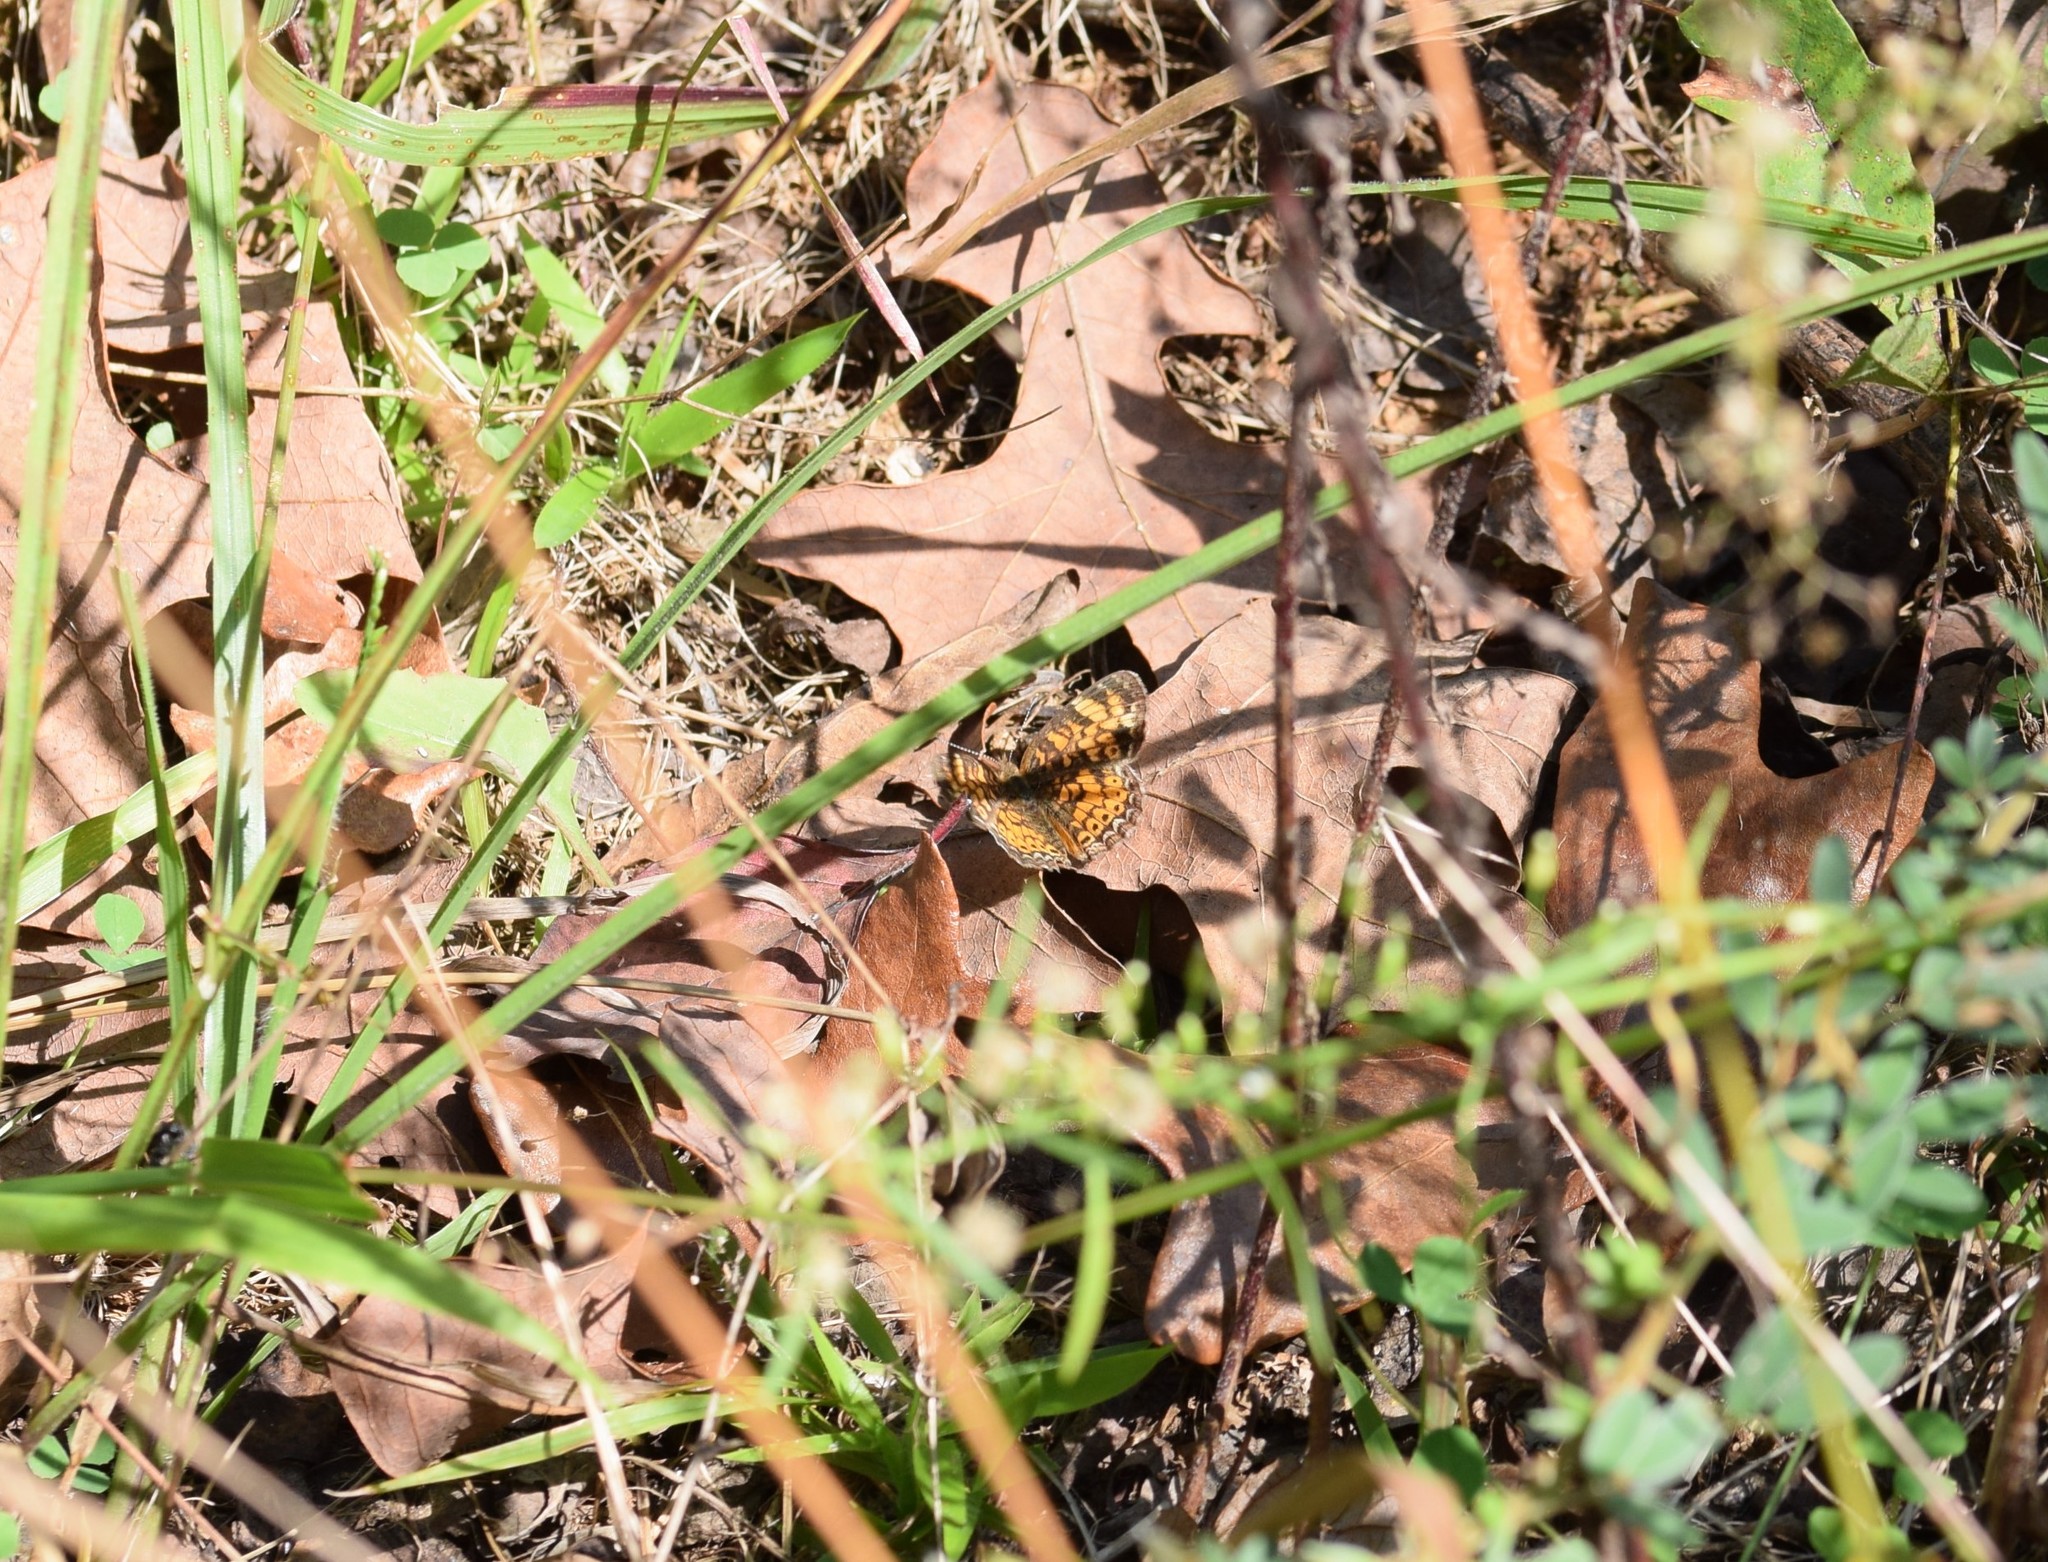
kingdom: Animalia
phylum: Arthropoda
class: Insecta
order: Lepidoptera
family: Nymphalidae
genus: Phyciodes
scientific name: Phyciodes tharos
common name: Pearl crescent
